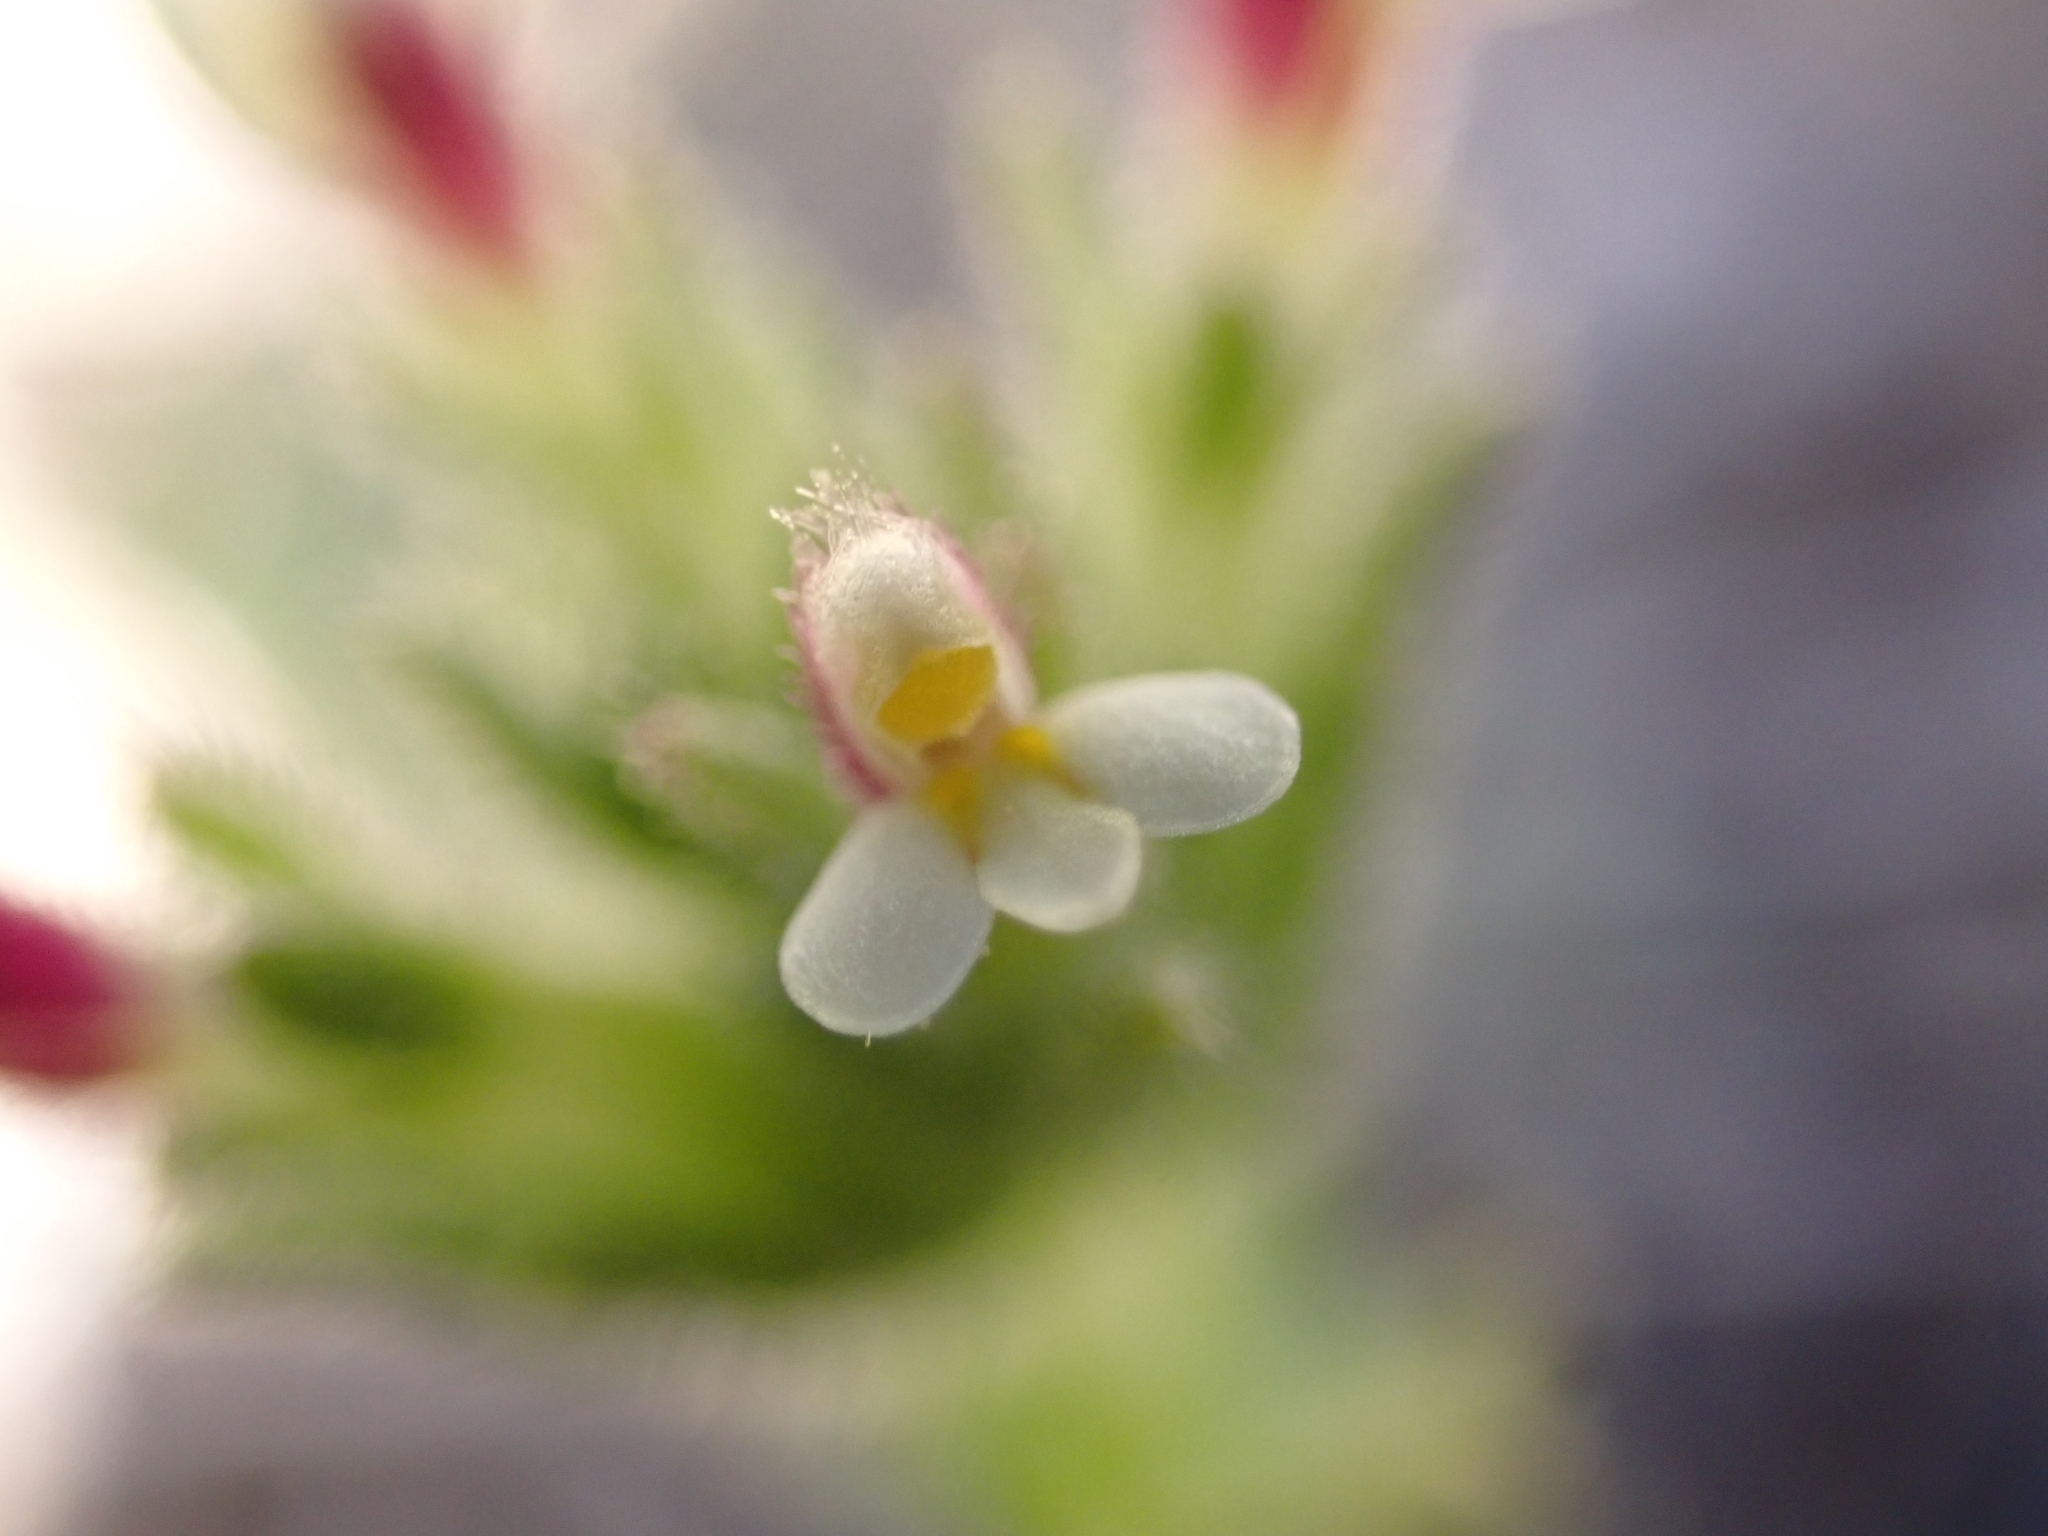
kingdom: Plantae
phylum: Tracheophyta
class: Magnoliopsida
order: Lamiales
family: Orobanchaceae
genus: Parentucellia
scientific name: Parentucellia latifolia
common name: Broadleaf glandweed
